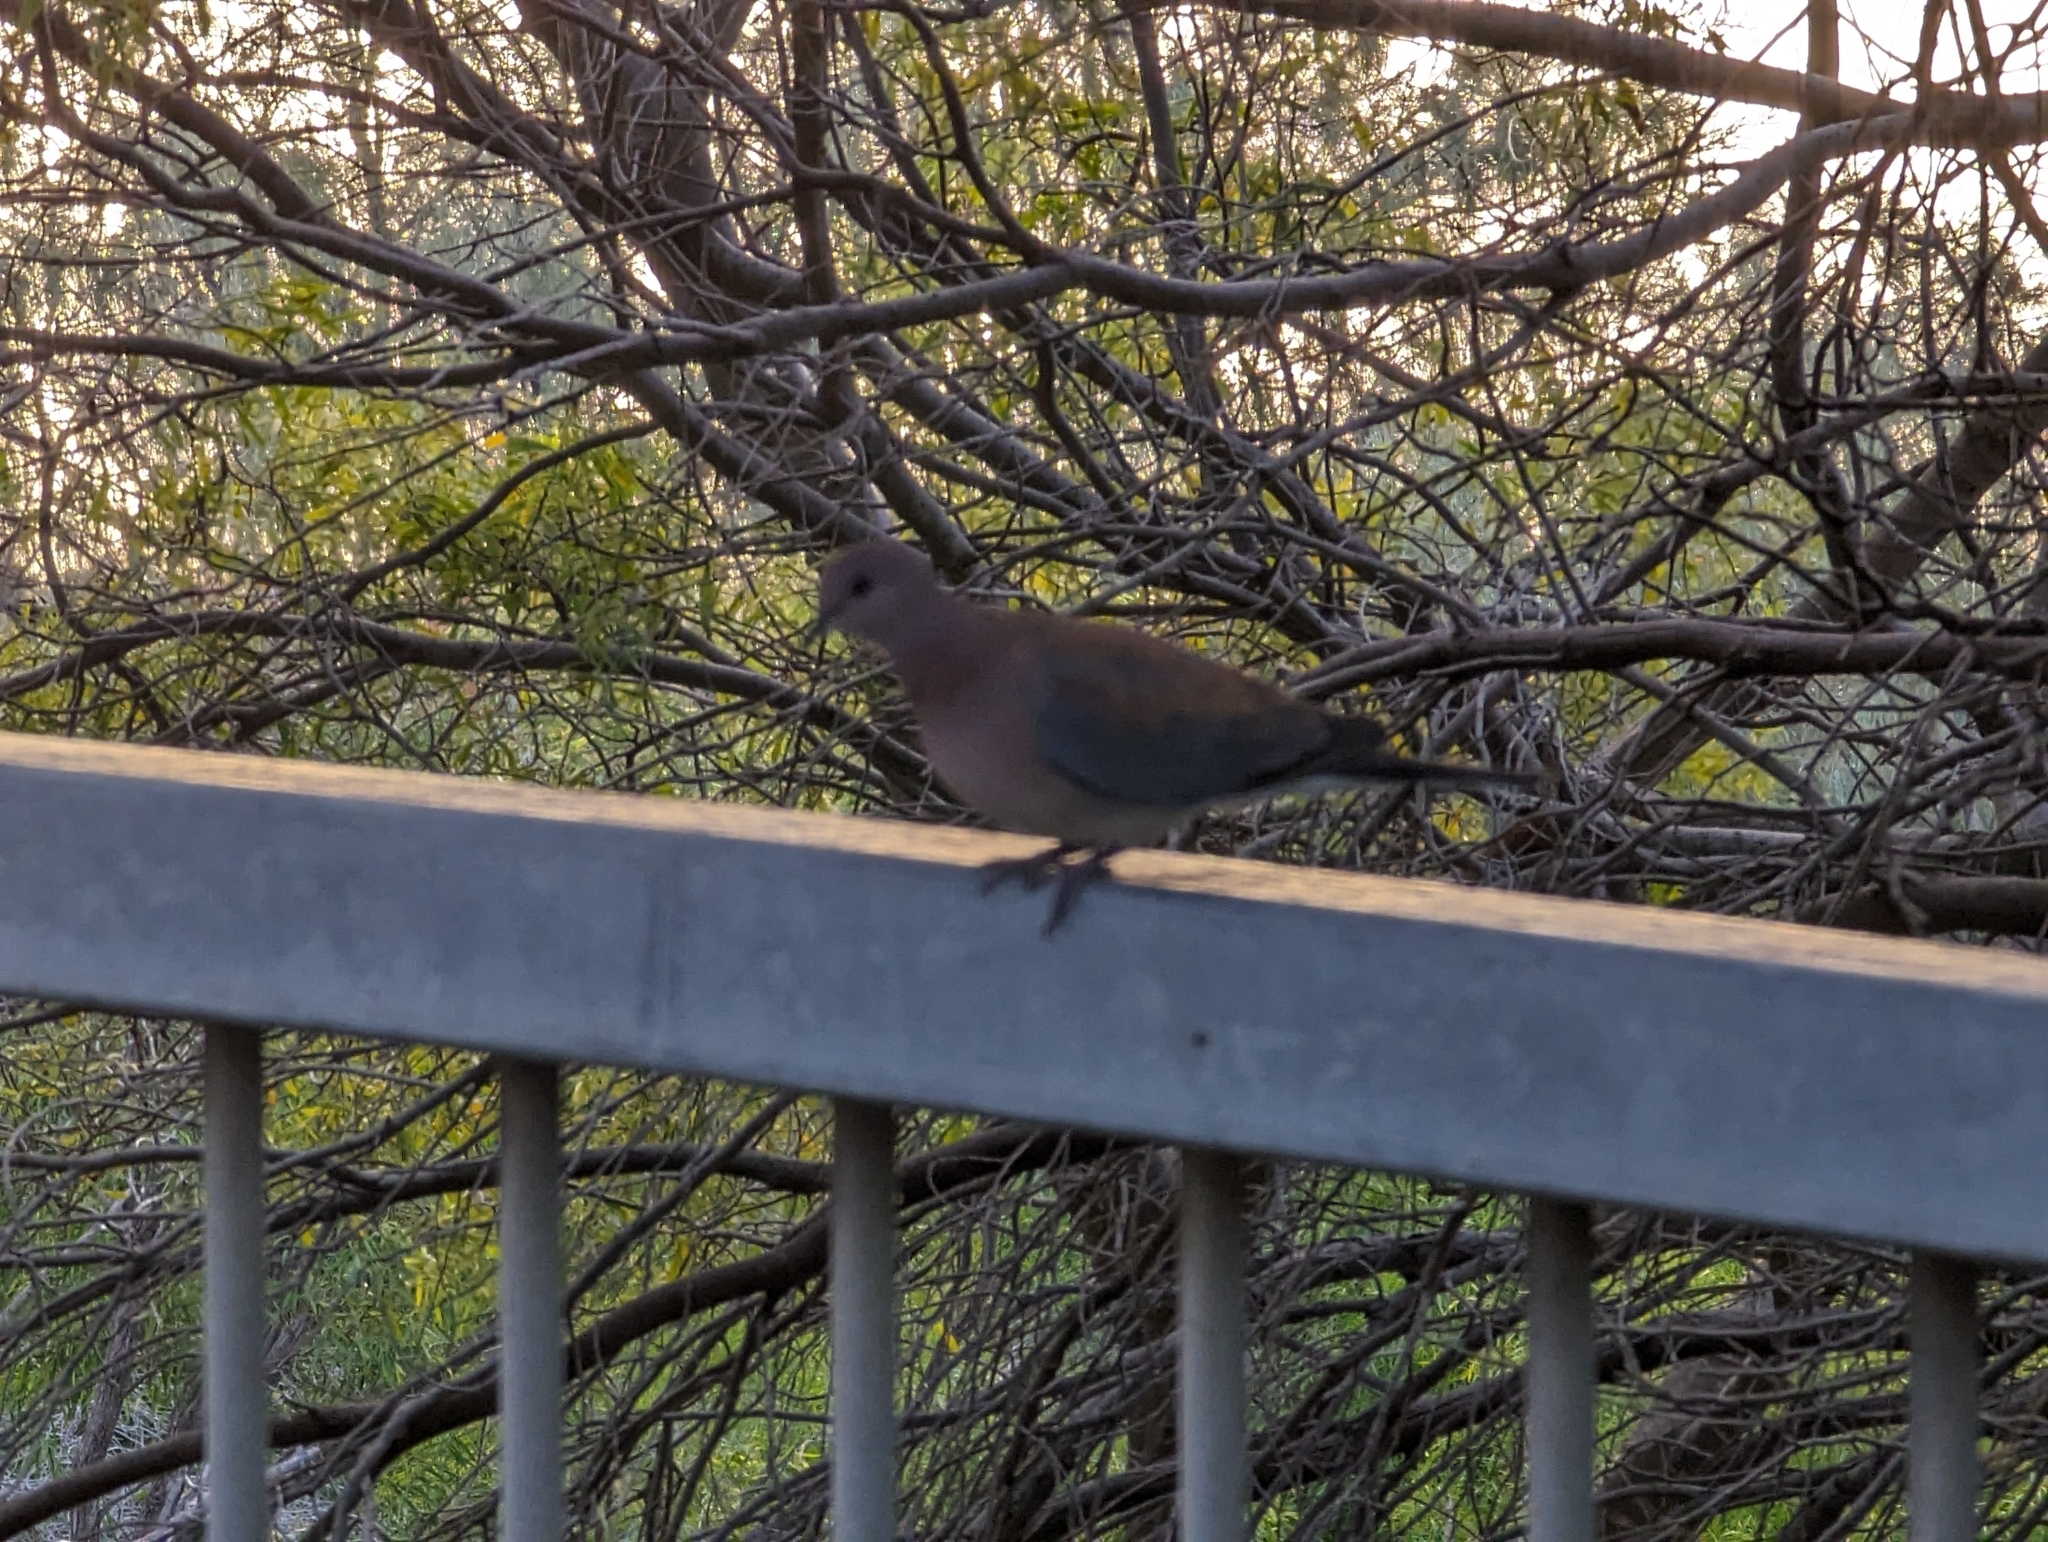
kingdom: Animalia
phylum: Chordata
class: Aves
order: Columbiformes
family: Columbidae
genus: Spilopelia
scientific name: Spilopelia senegalensis
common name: Laughing dove
